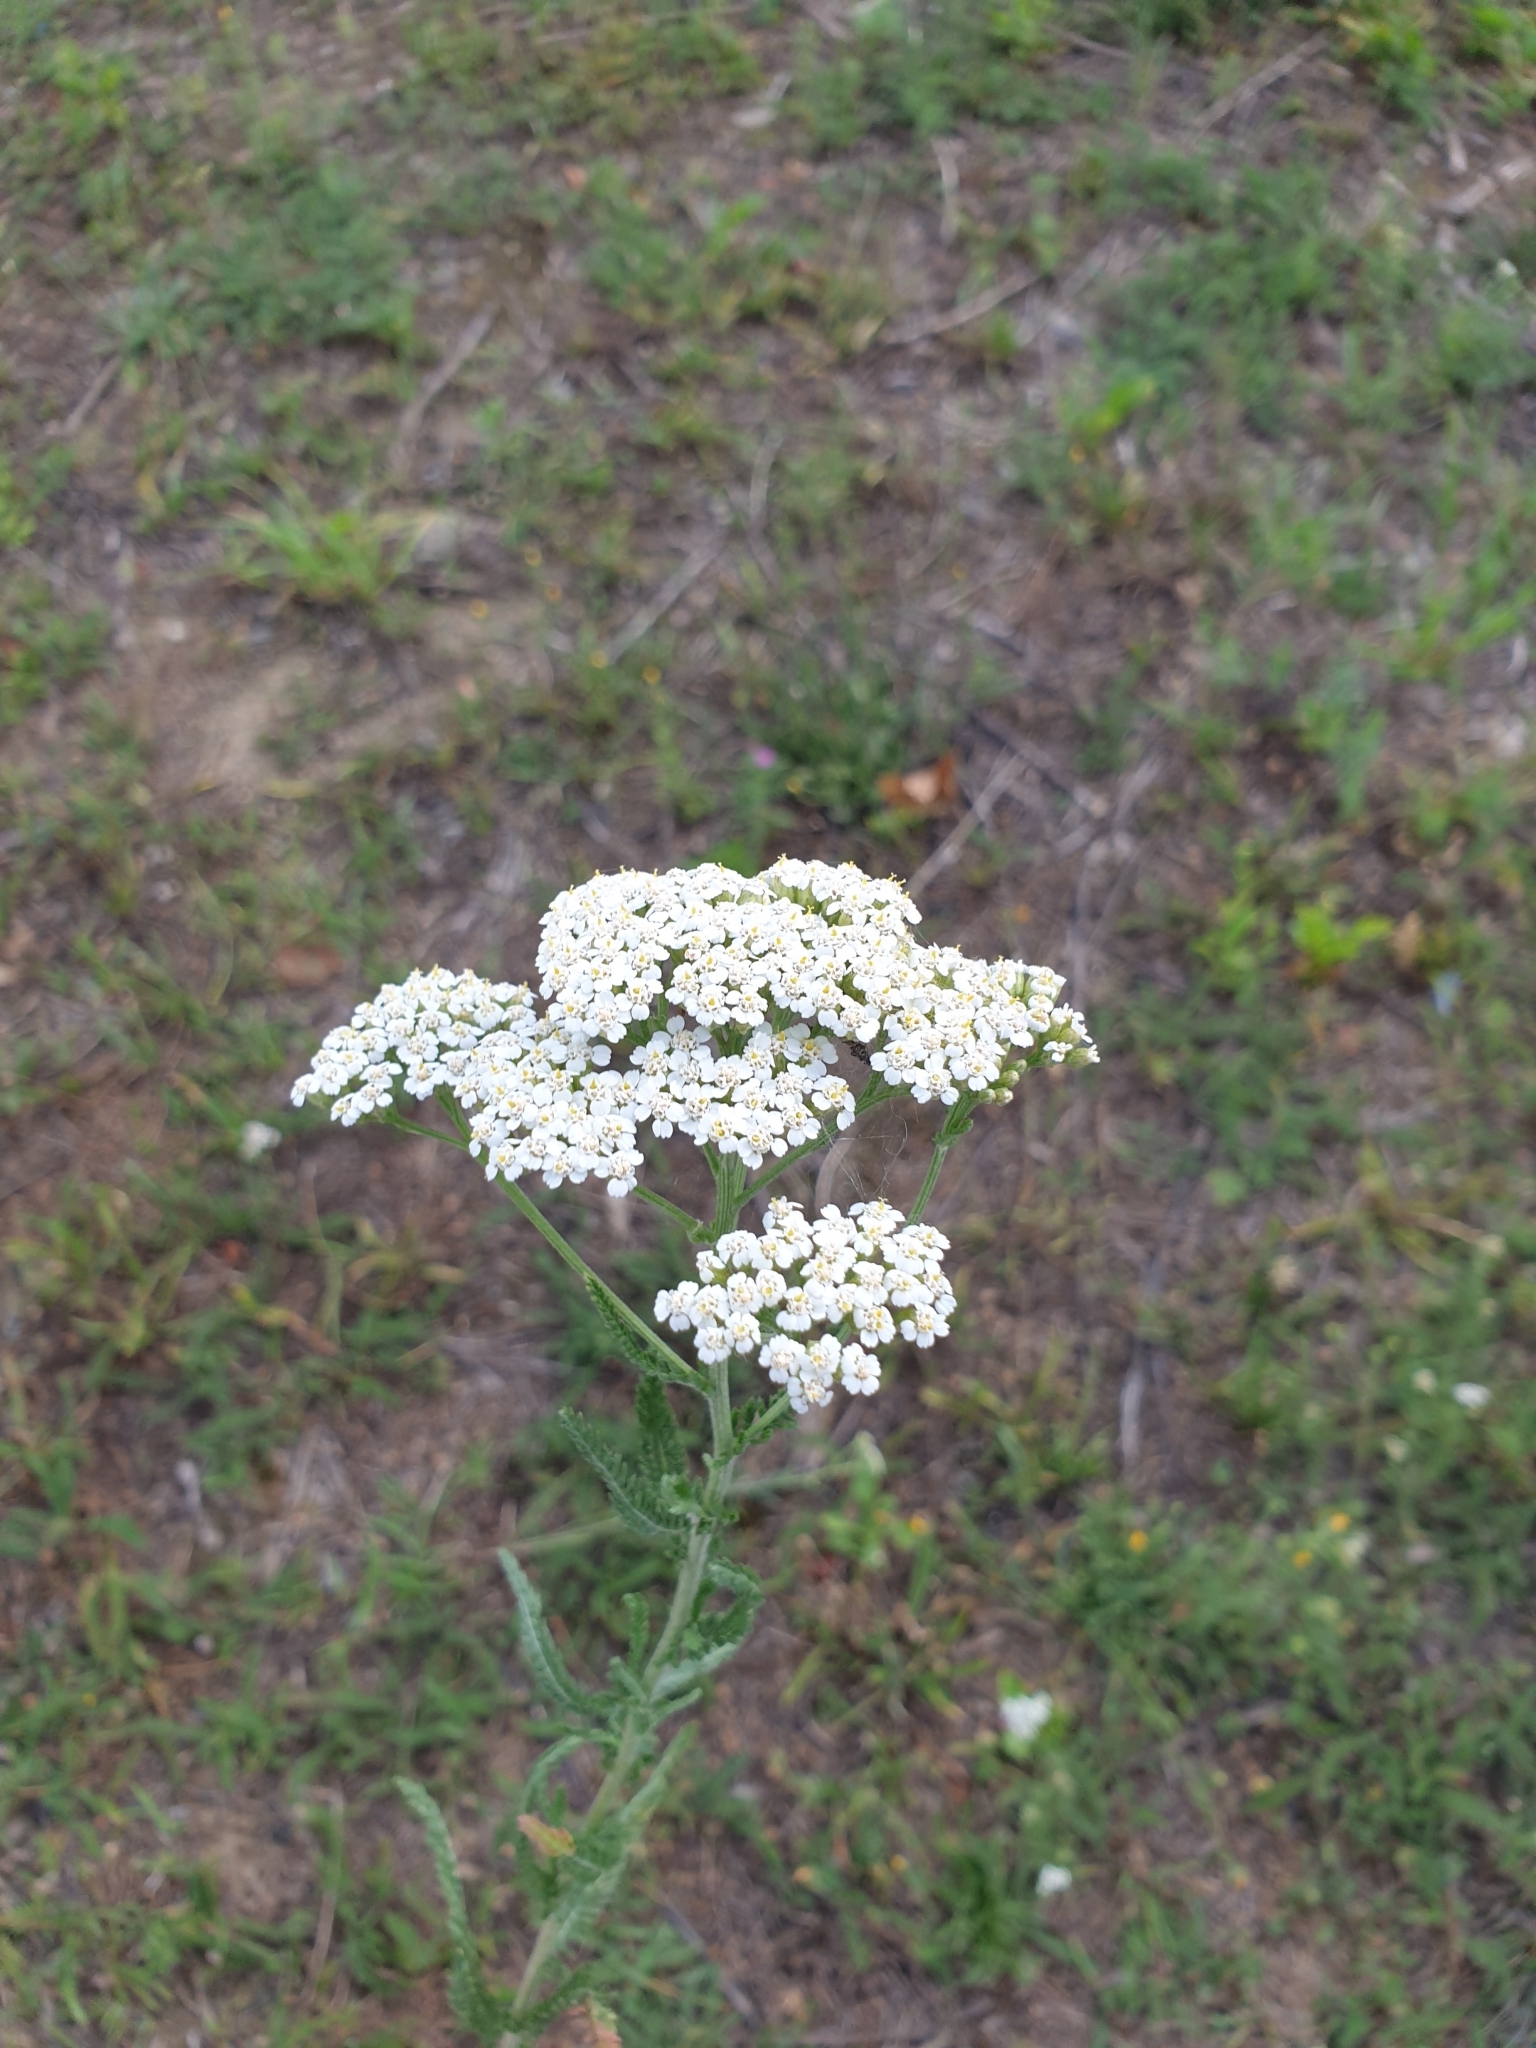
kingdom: Plantae
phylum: Tracheophyta
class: Magnoliopsida
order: Asterales
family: Asteraceae
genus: Achillea
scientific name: Achillea millefolium
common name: Yarrow
